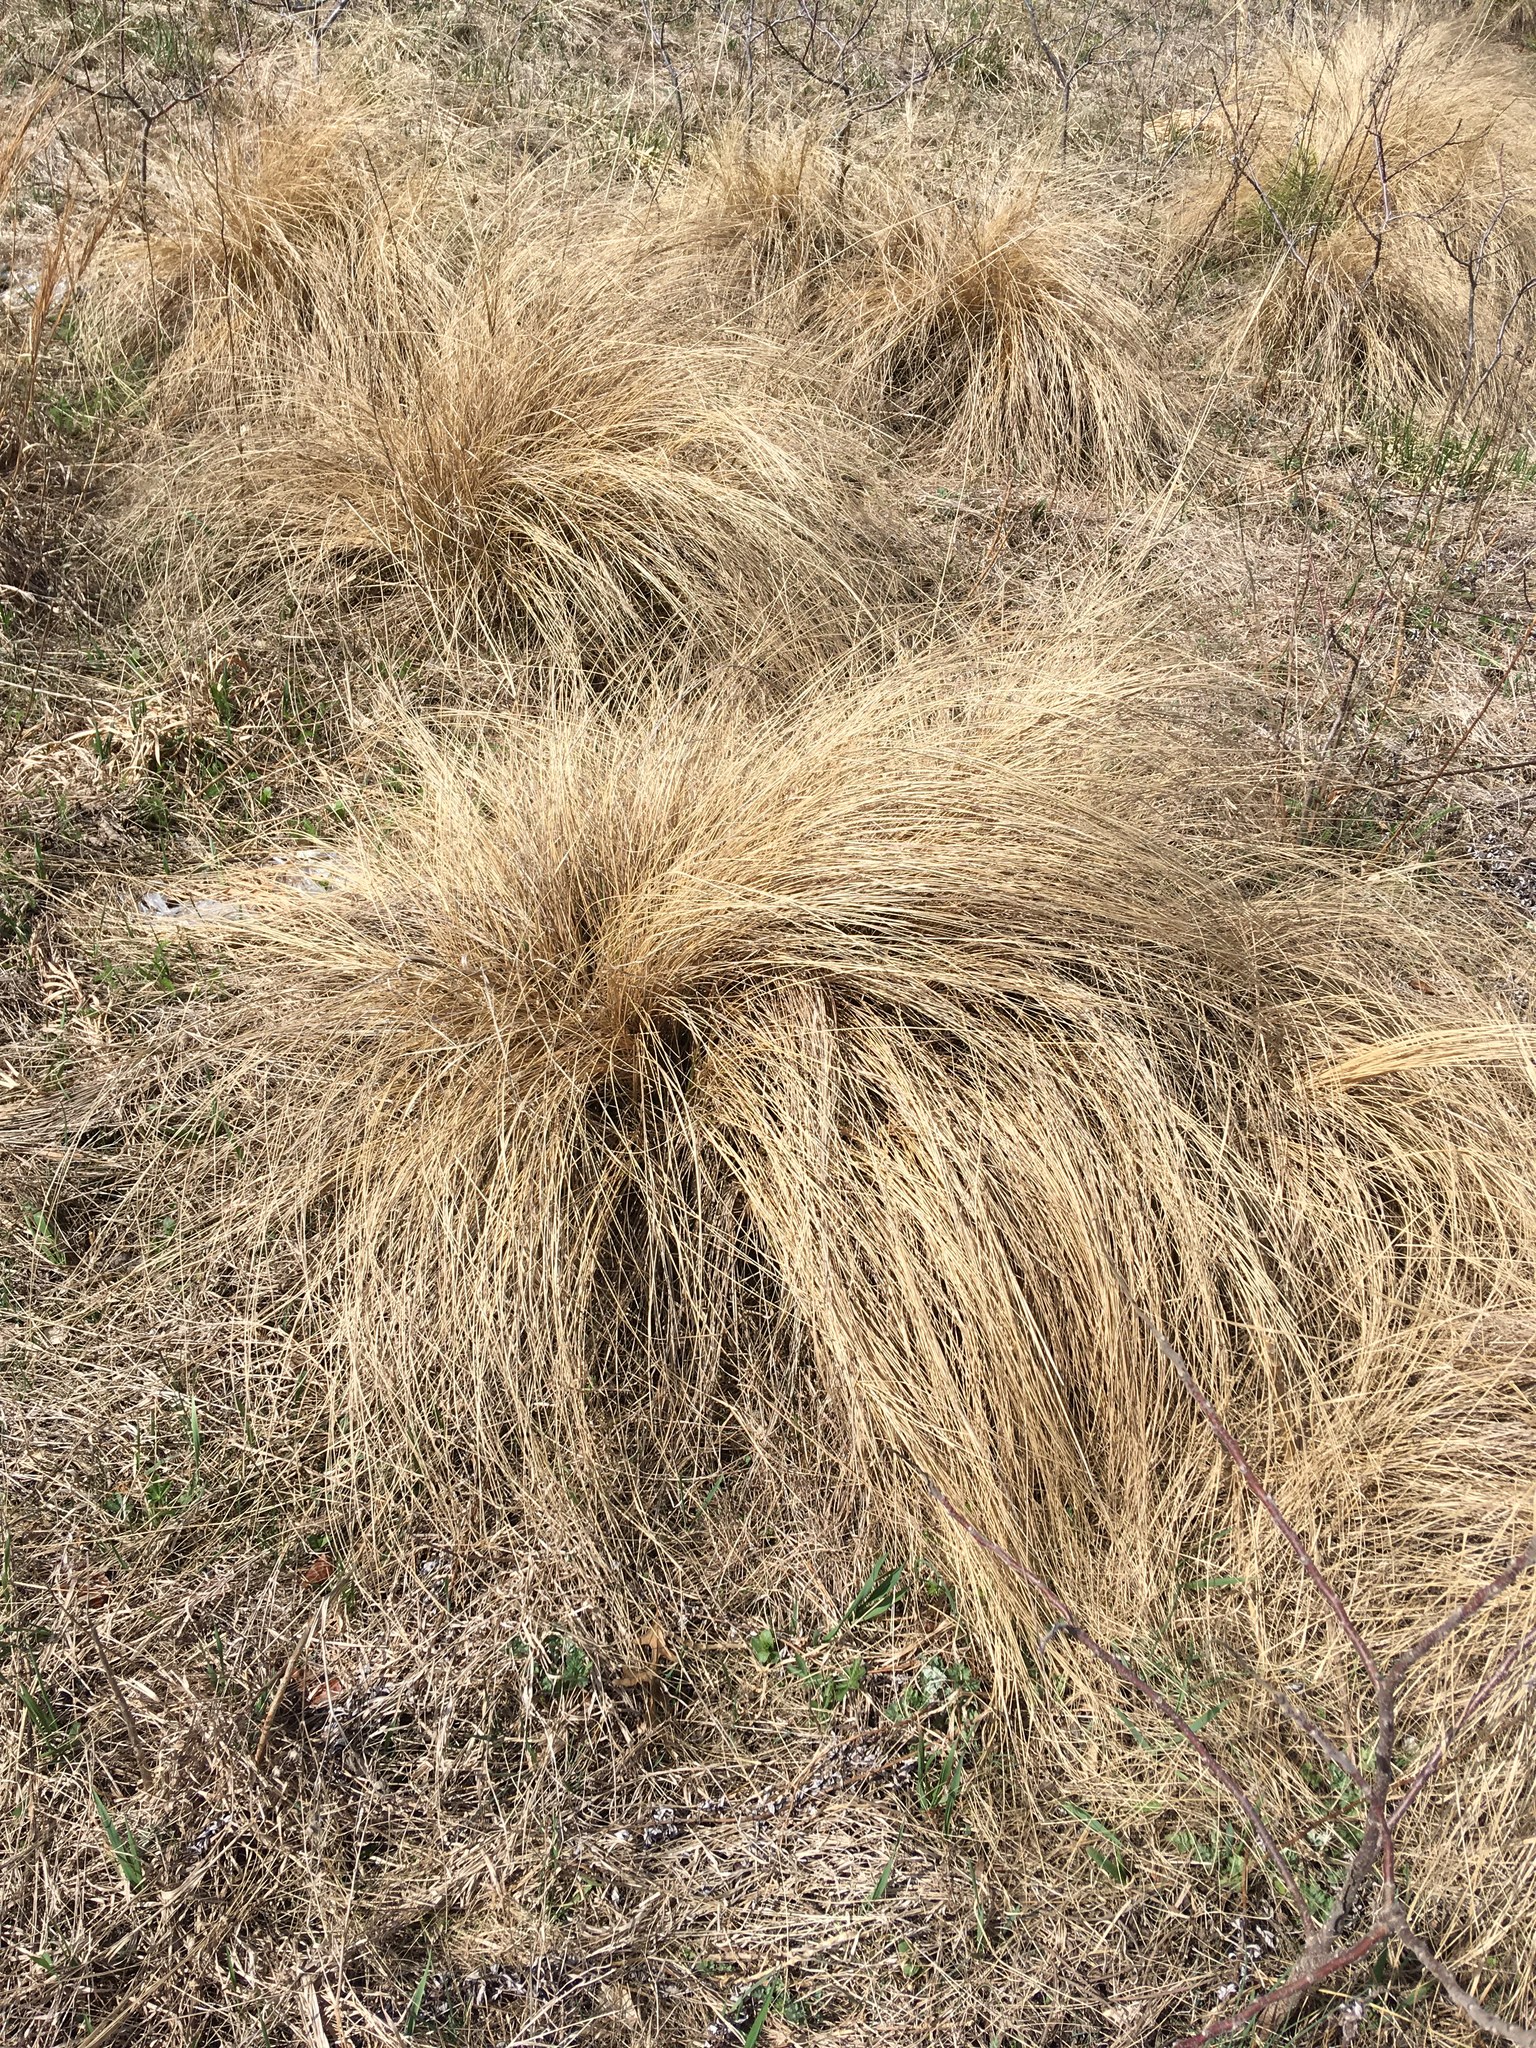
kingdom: Plantae
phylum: Tracheophyta
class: Liliopsida
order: Poales
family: Poaceae
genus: Eragrostis
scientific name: Eragrostis curvula
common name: African love-grass
